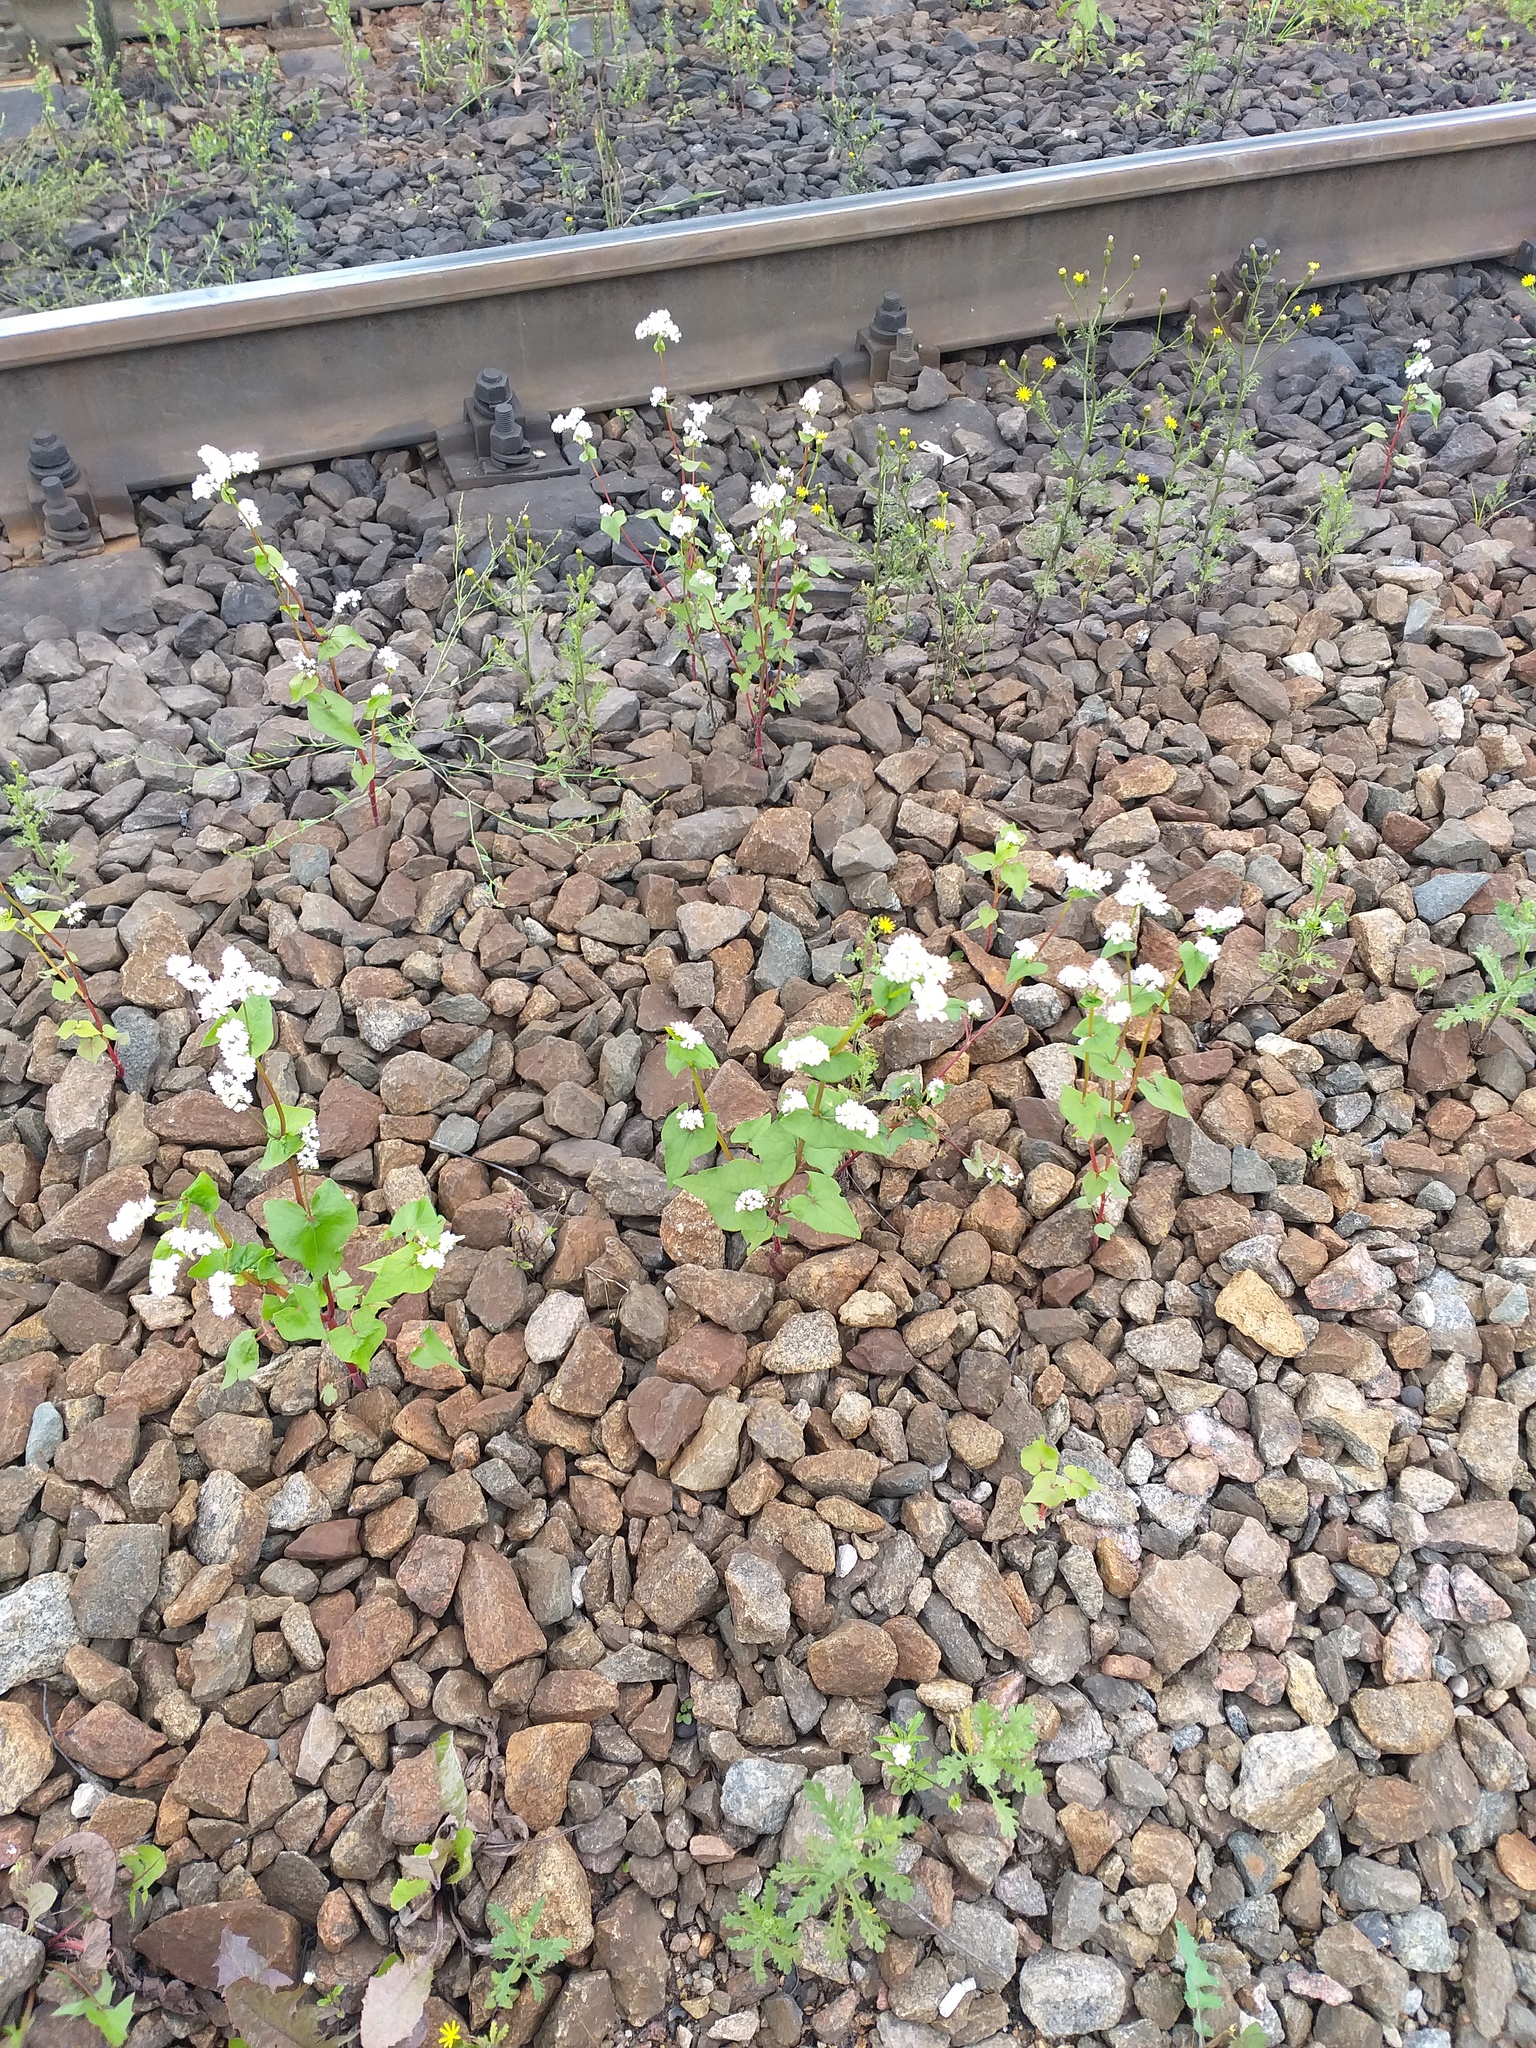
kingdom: Plantae
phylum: Tracheophyta
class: Magnoliopsida
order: Caryophyllales
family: Polygonaceae
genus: Fagopyrum
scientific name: Fagopyrum esculentum
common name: Buckwheat
